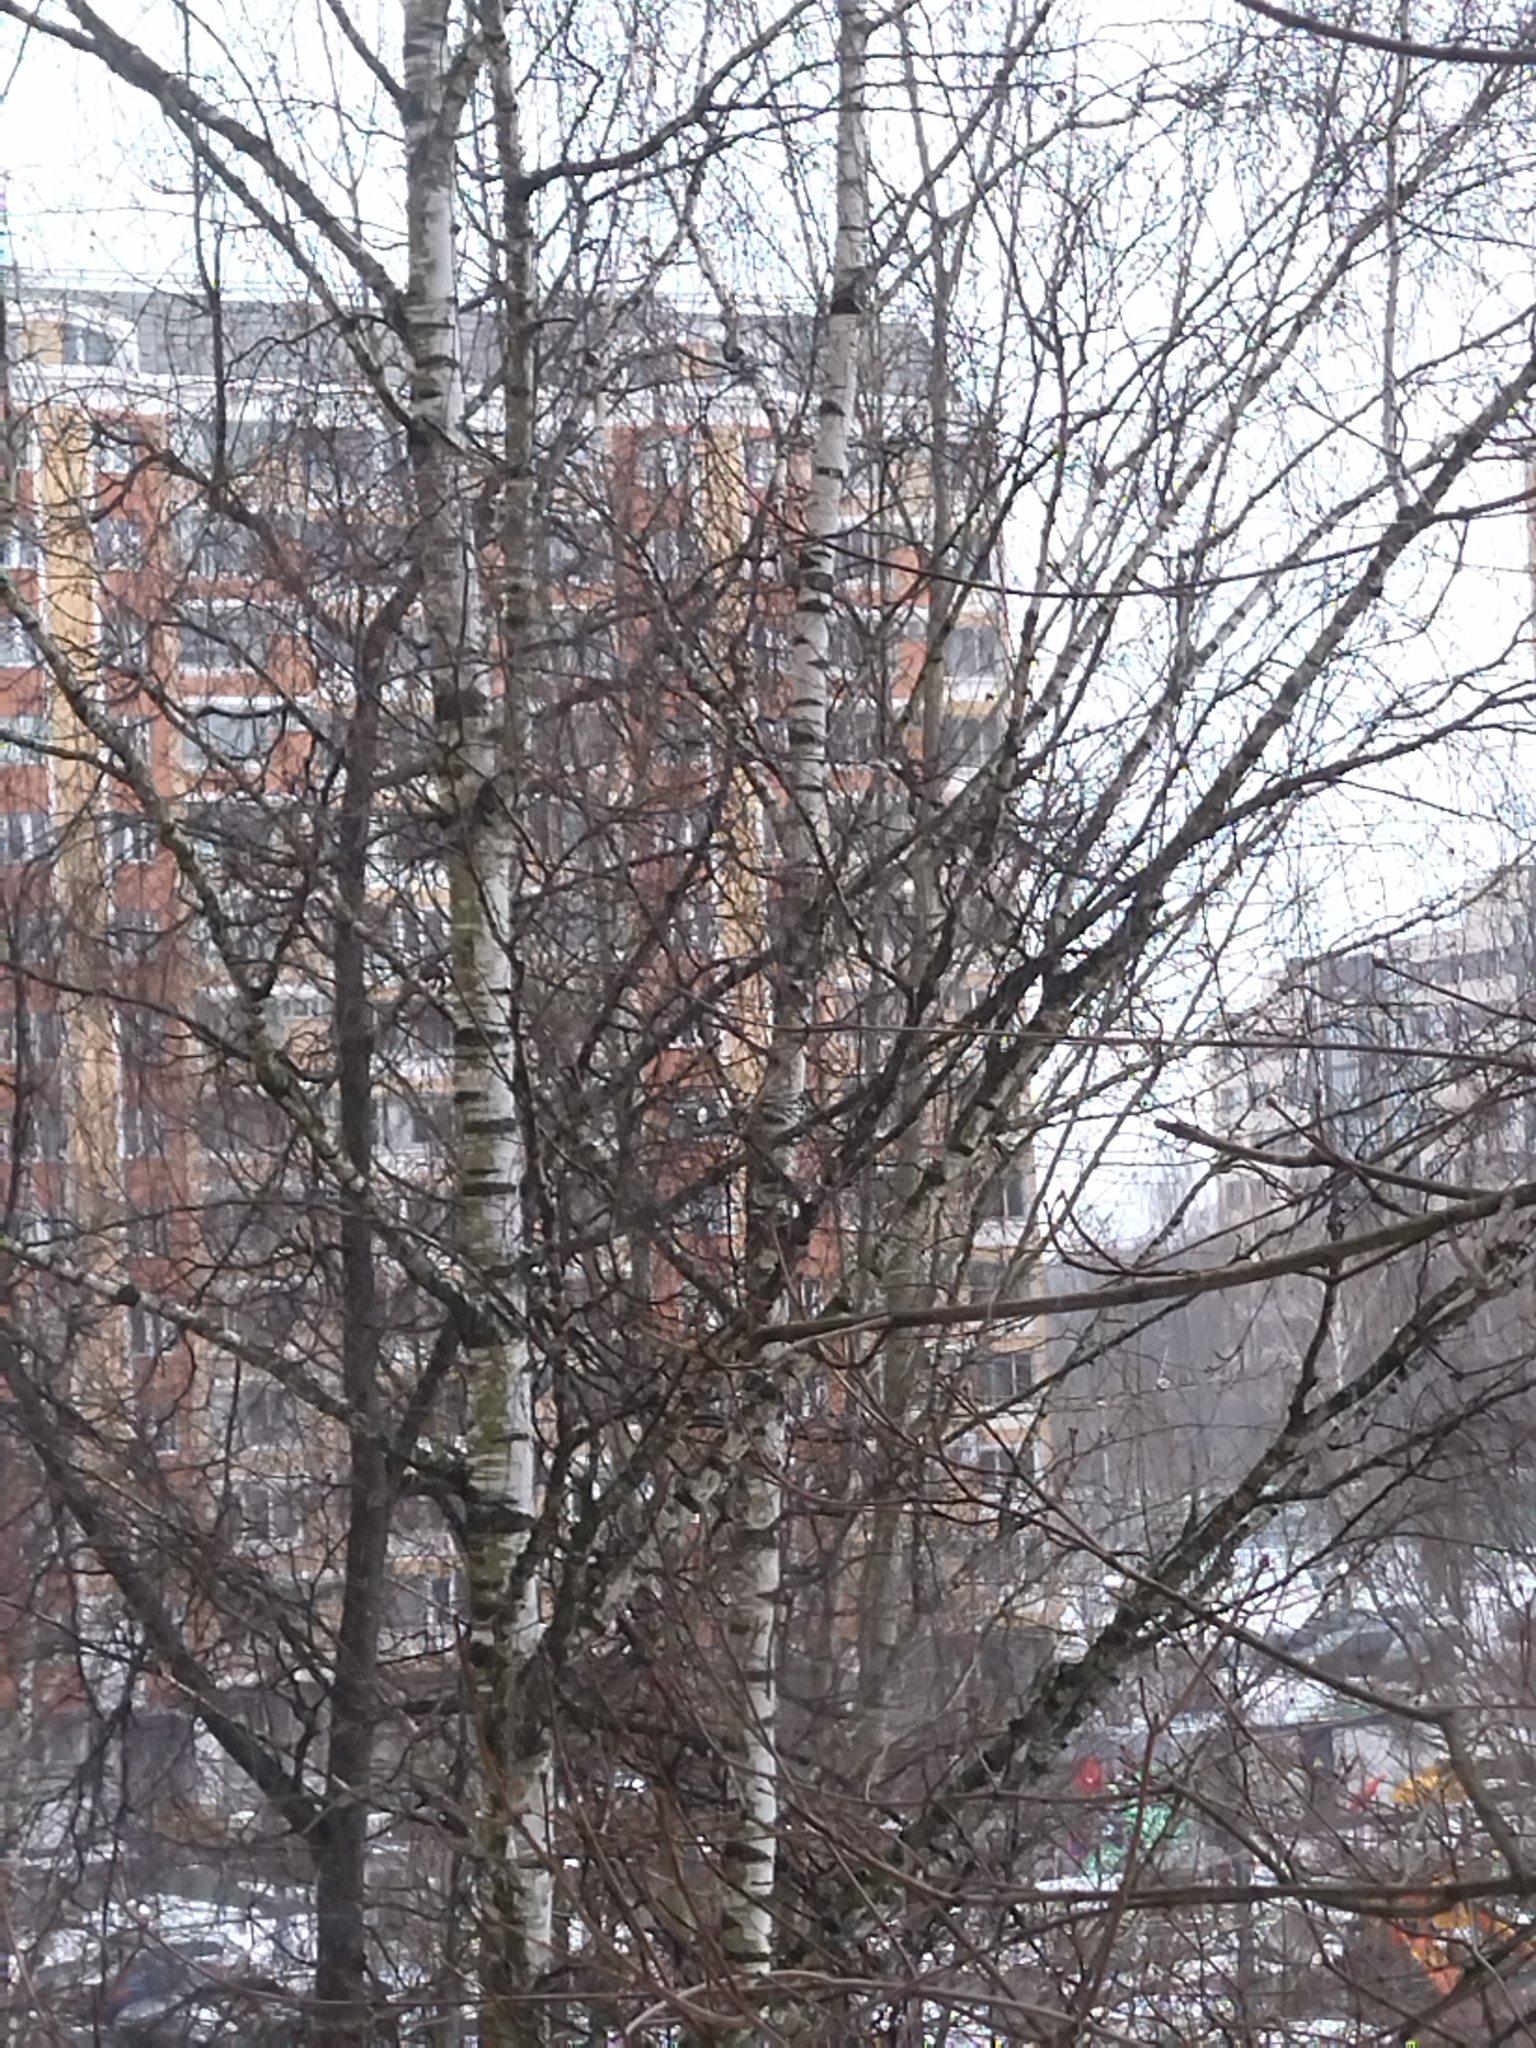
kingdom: Plantae
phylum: Tracheophyta
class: Magnoliopsida
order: Fagales
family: Betulaceae
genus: Betula
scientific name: Betula pendula
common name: Silver birch
